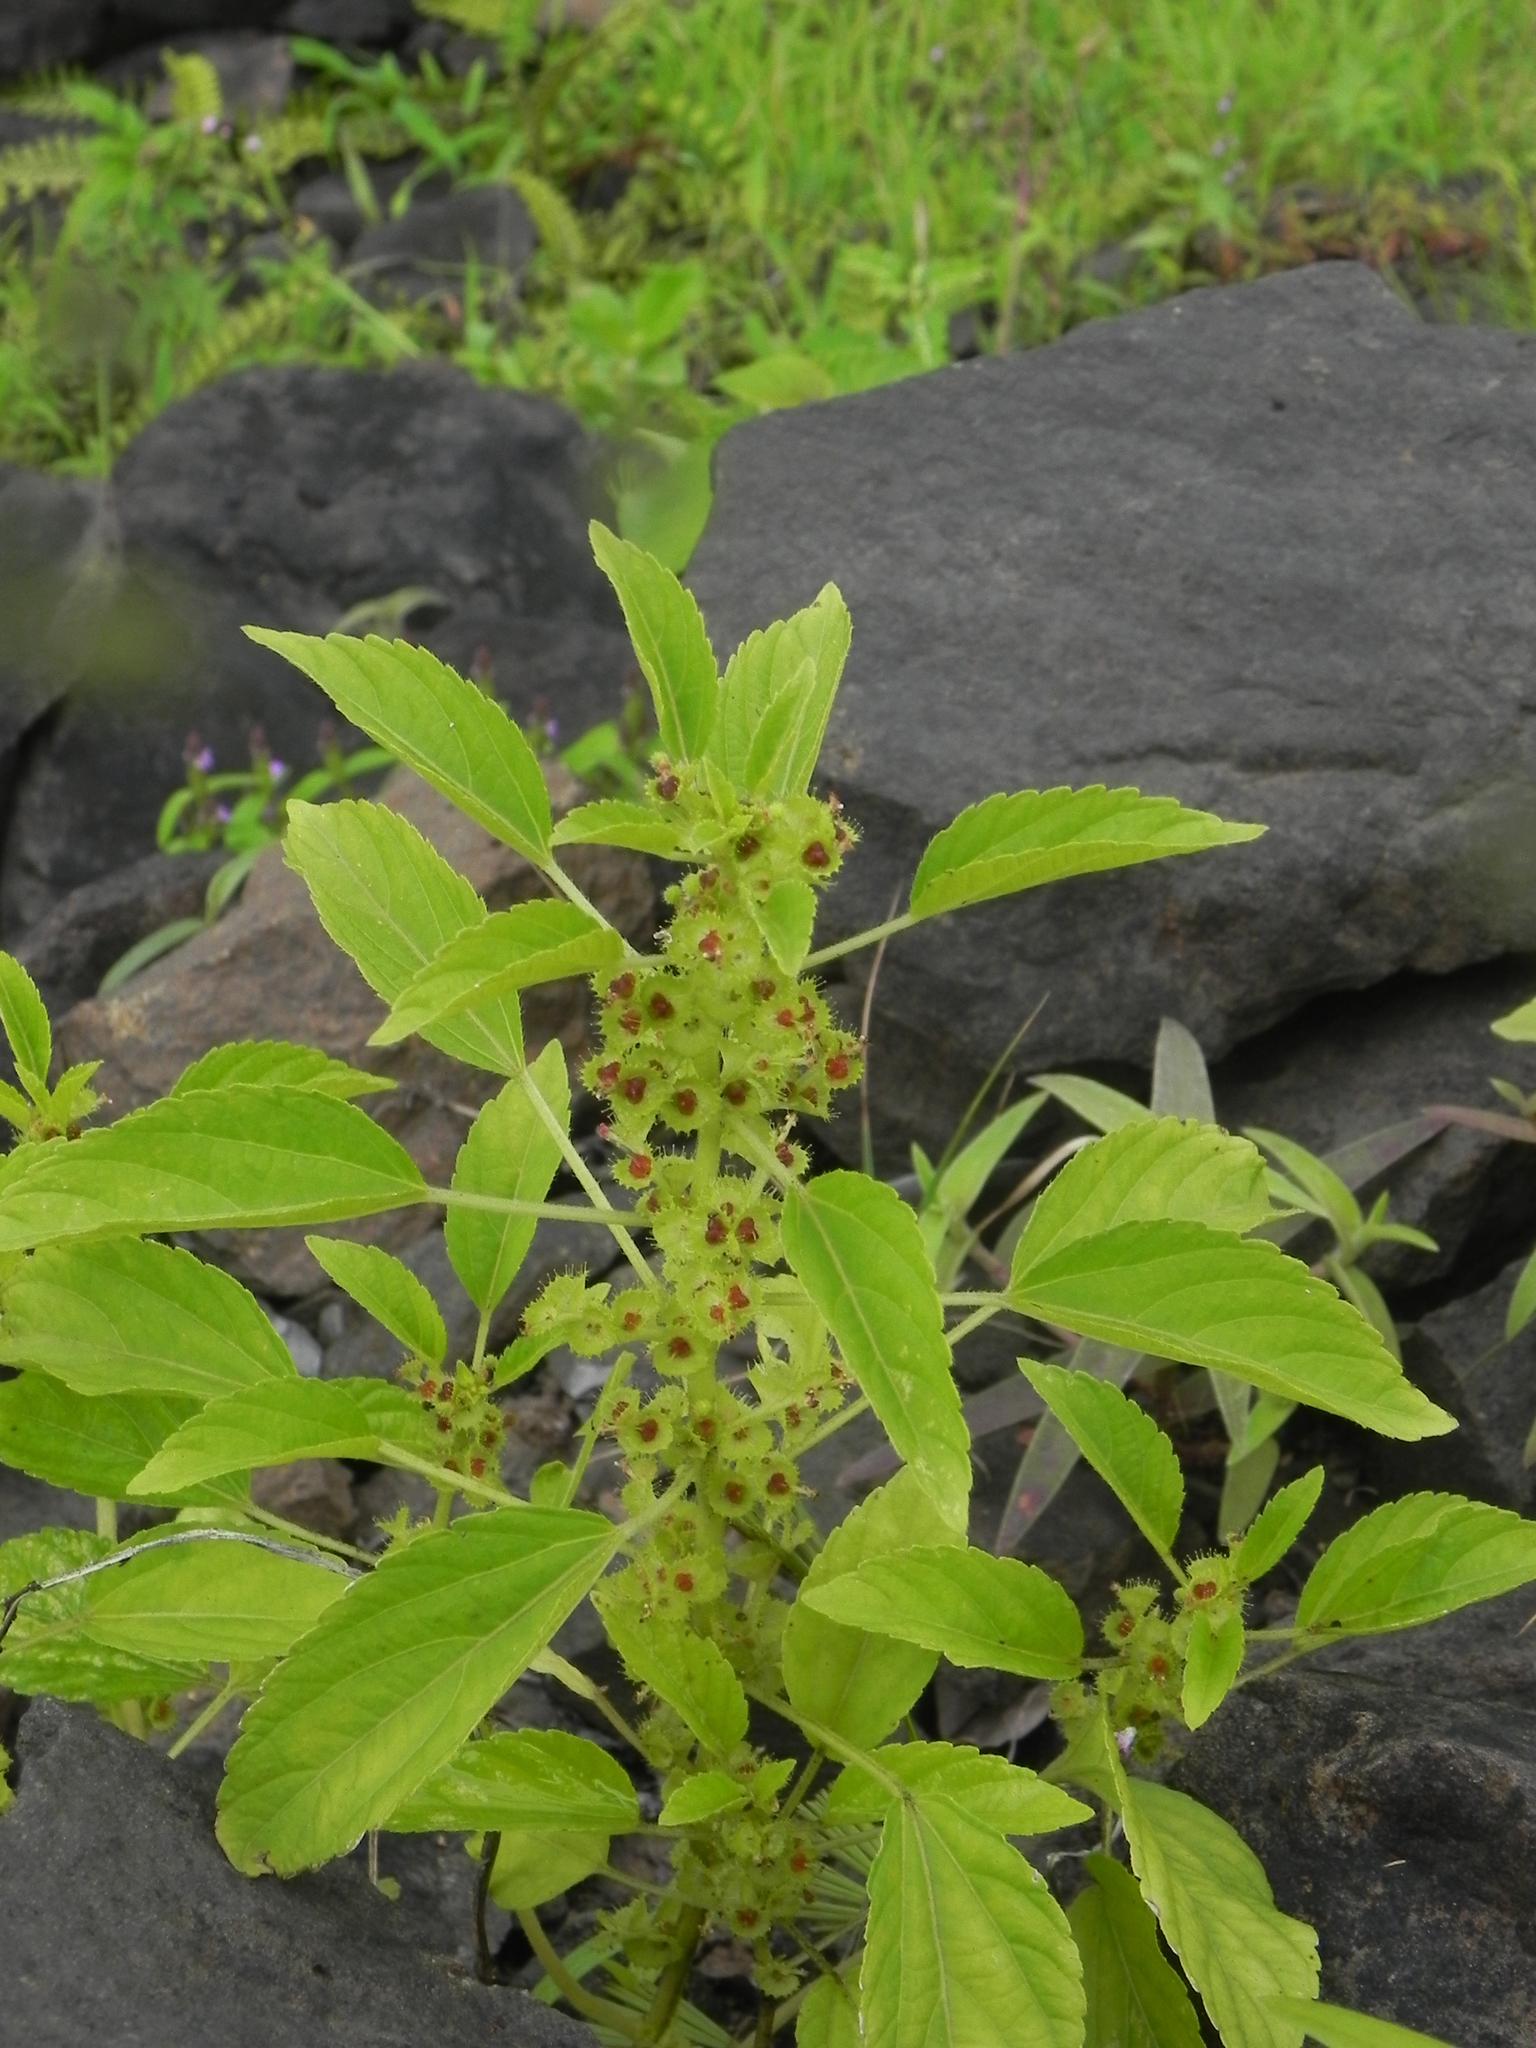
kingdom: Plantae
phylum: Tracheophyta
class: Magnoliopsida
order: Malpighiales
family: Euphorbiaceae
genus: Acalypha
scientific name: Acalypha malabarica
